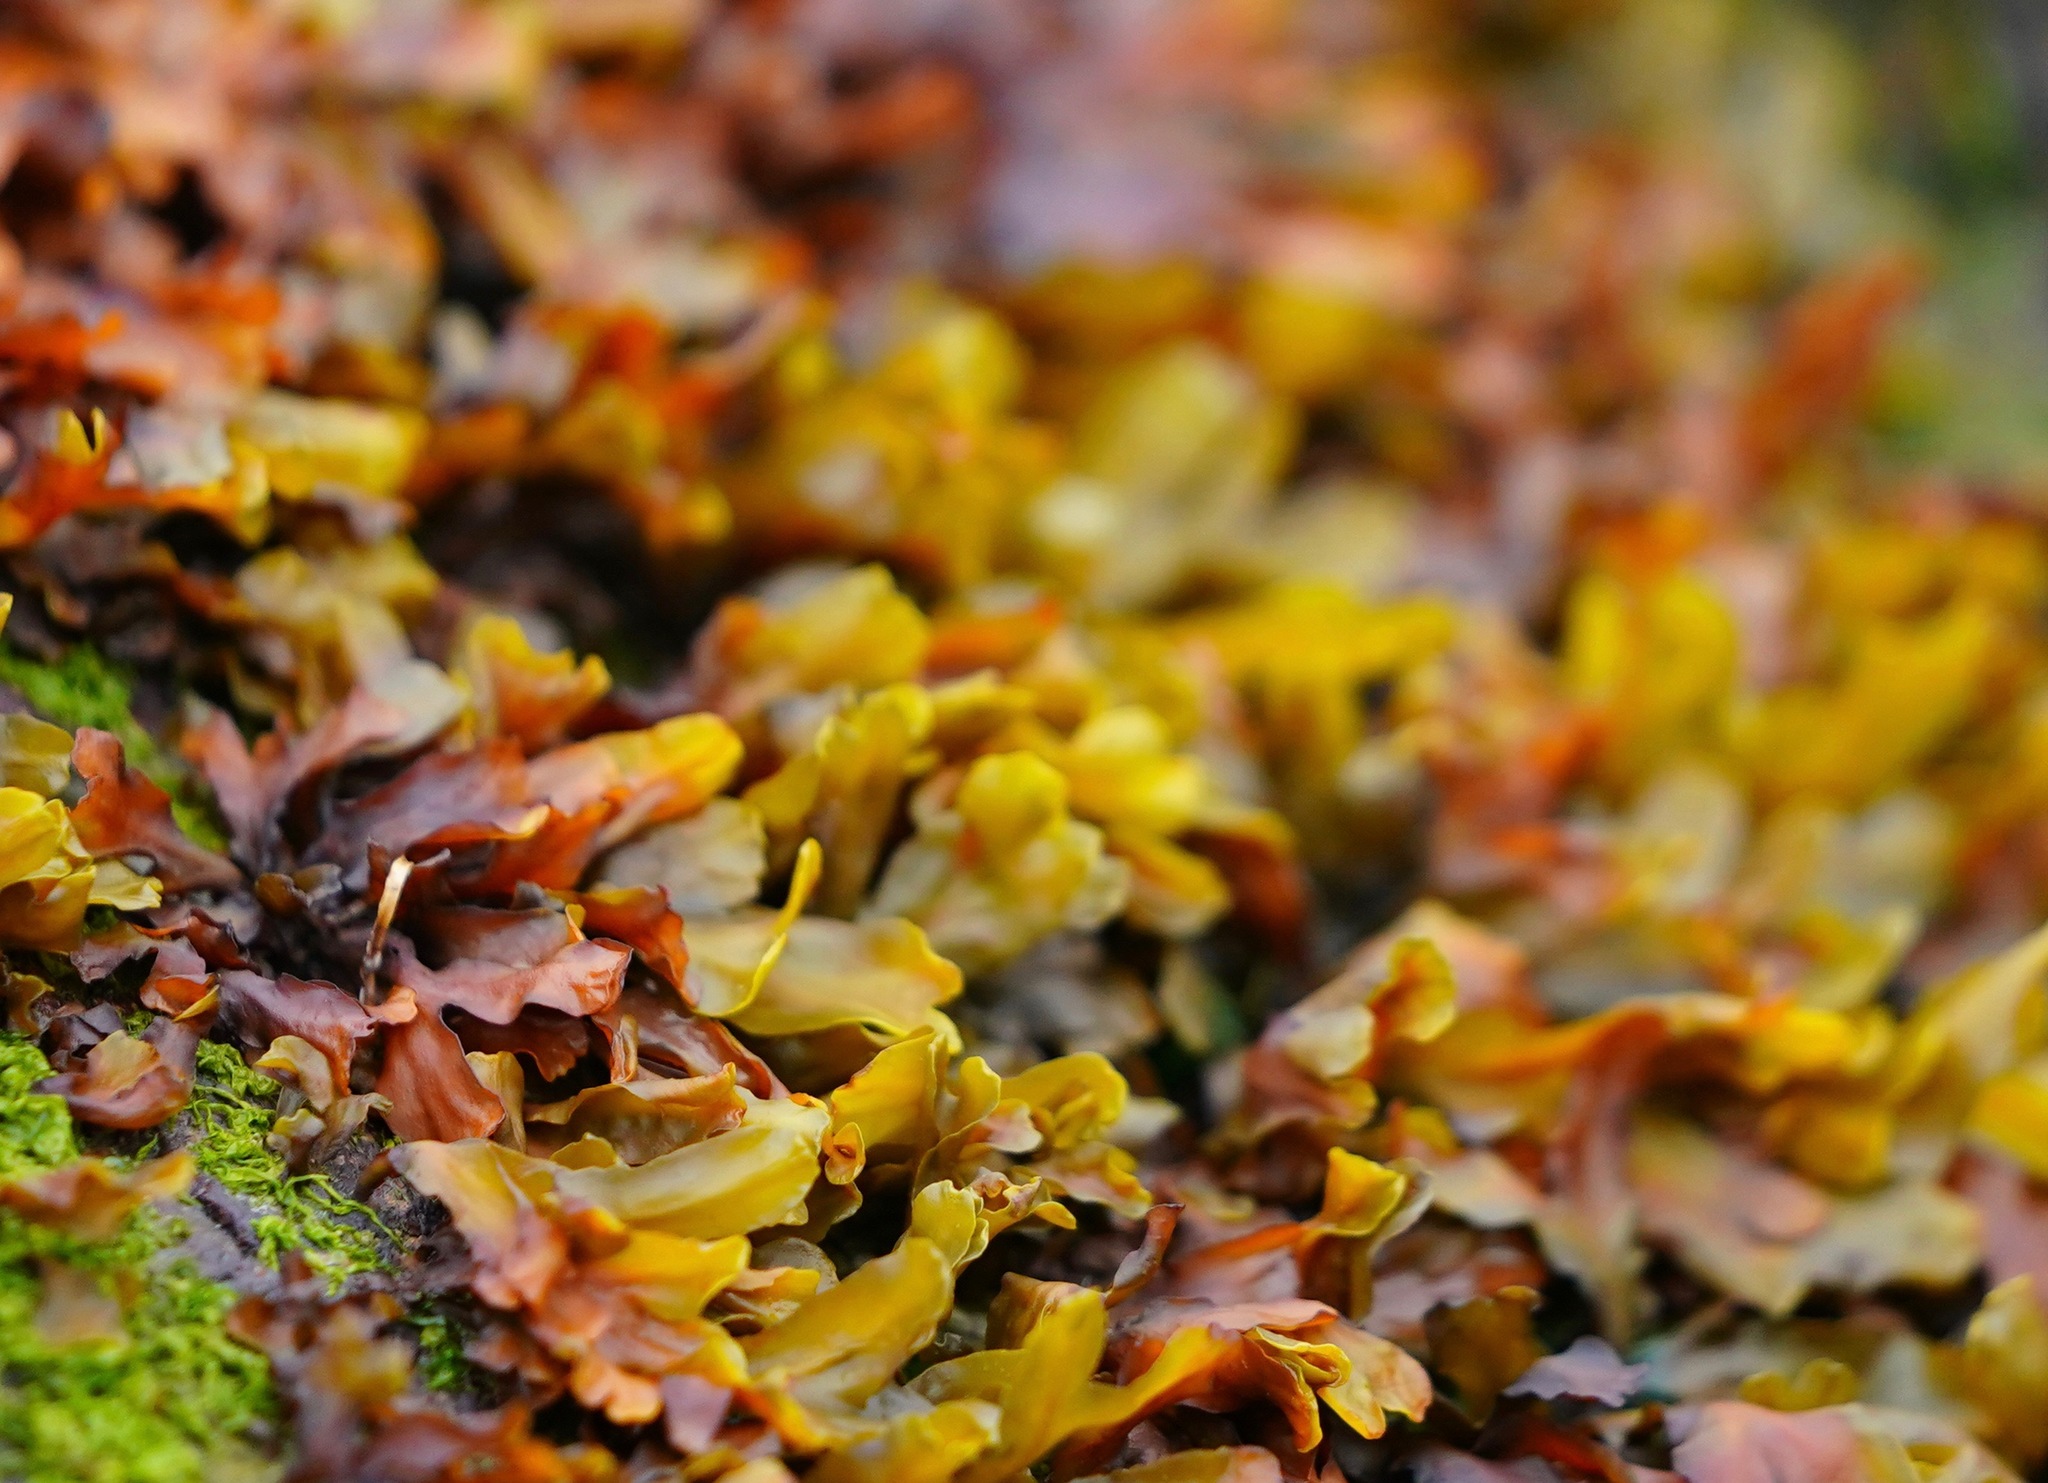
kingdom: Chromista
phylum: Ochrophyta
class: Phaeophyceae
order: Fucales
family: Fucaceae
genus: Fucus
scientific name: Fucus distichus
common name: Rockweed
